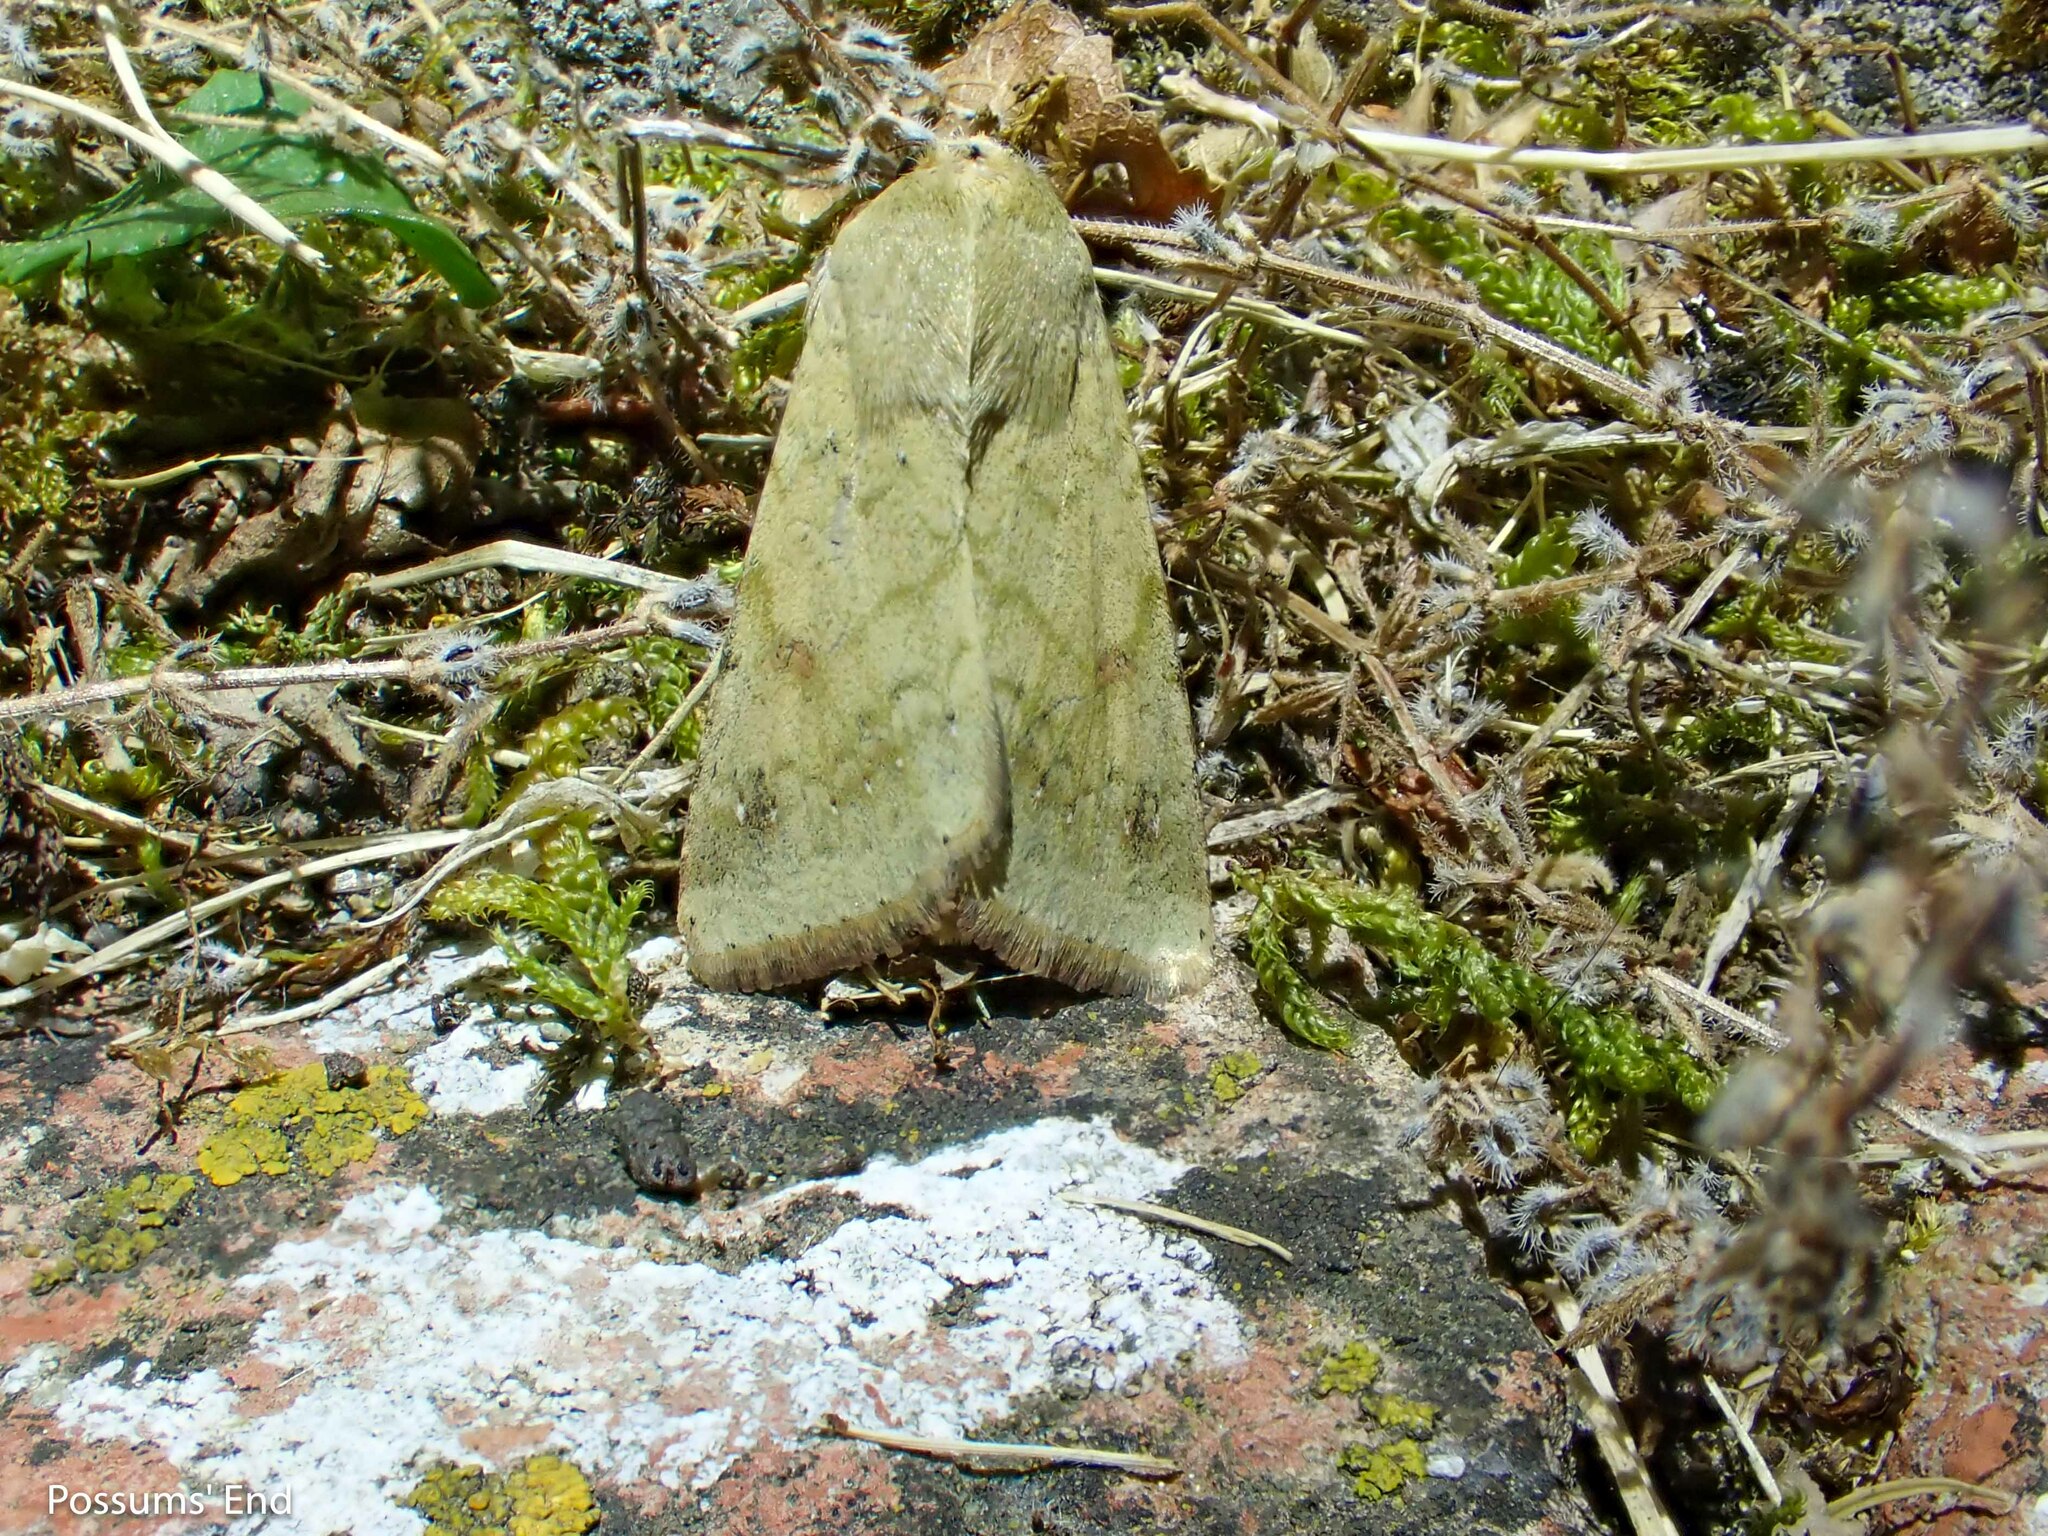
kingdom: Animalia
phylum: Arthropoda
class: Insecta
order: Lepidoptera
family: Noctuidae
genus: Helicoverpa
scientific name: Helicoverpa armigera
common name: Cotton bollworm
